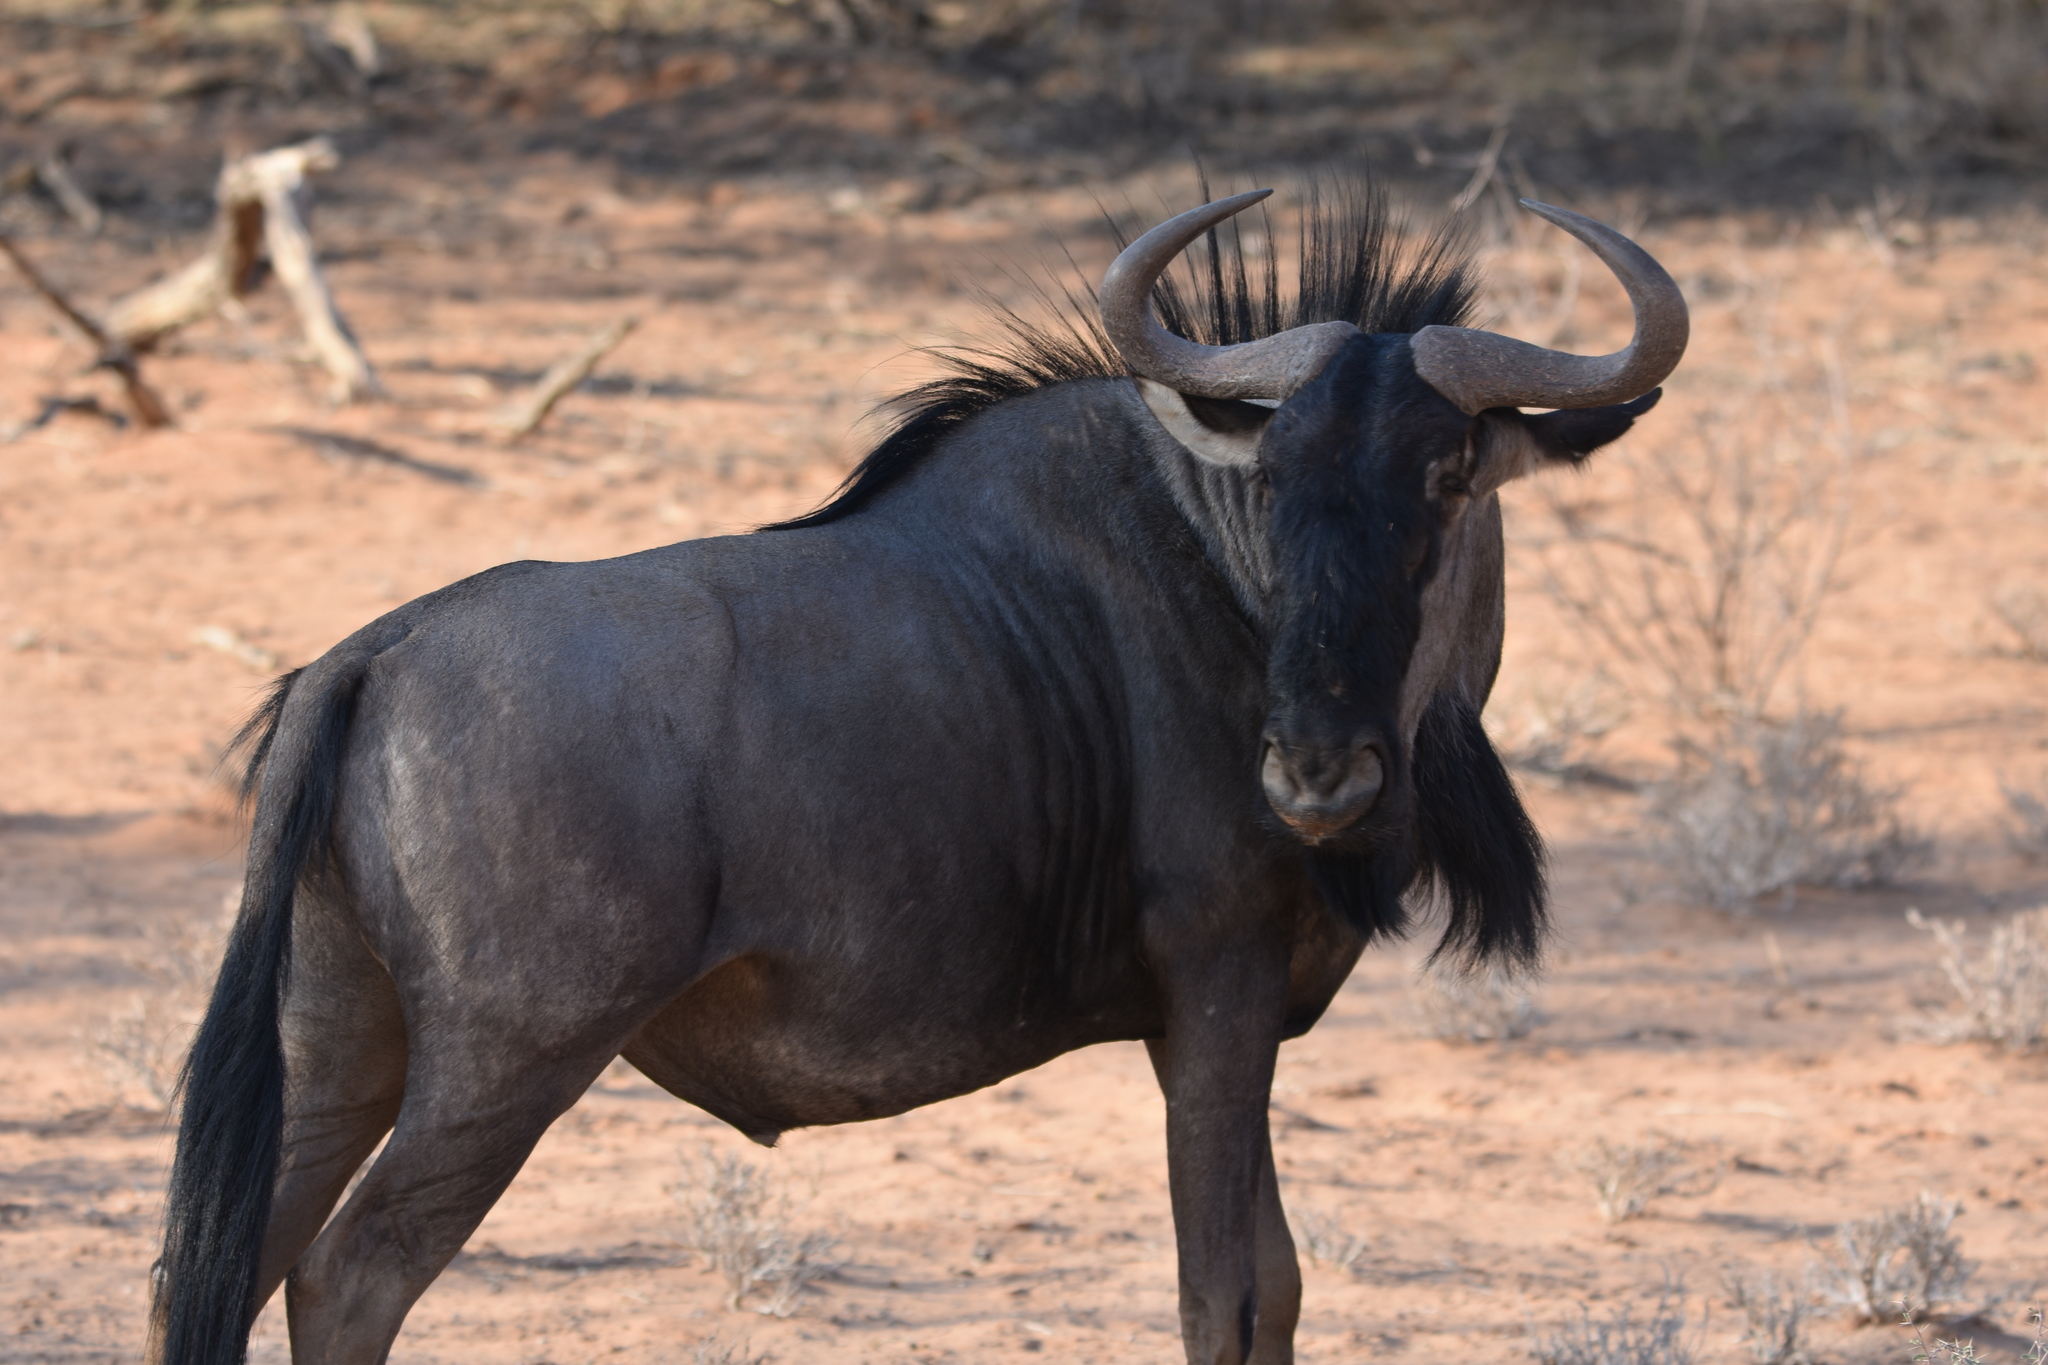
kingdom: Animalia
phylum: Chordata
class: Mammalia
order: Artiodactyla
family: Bovidae
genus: Connochaetes
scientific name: Connochaetes taurinus
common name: Blue wildebeest
